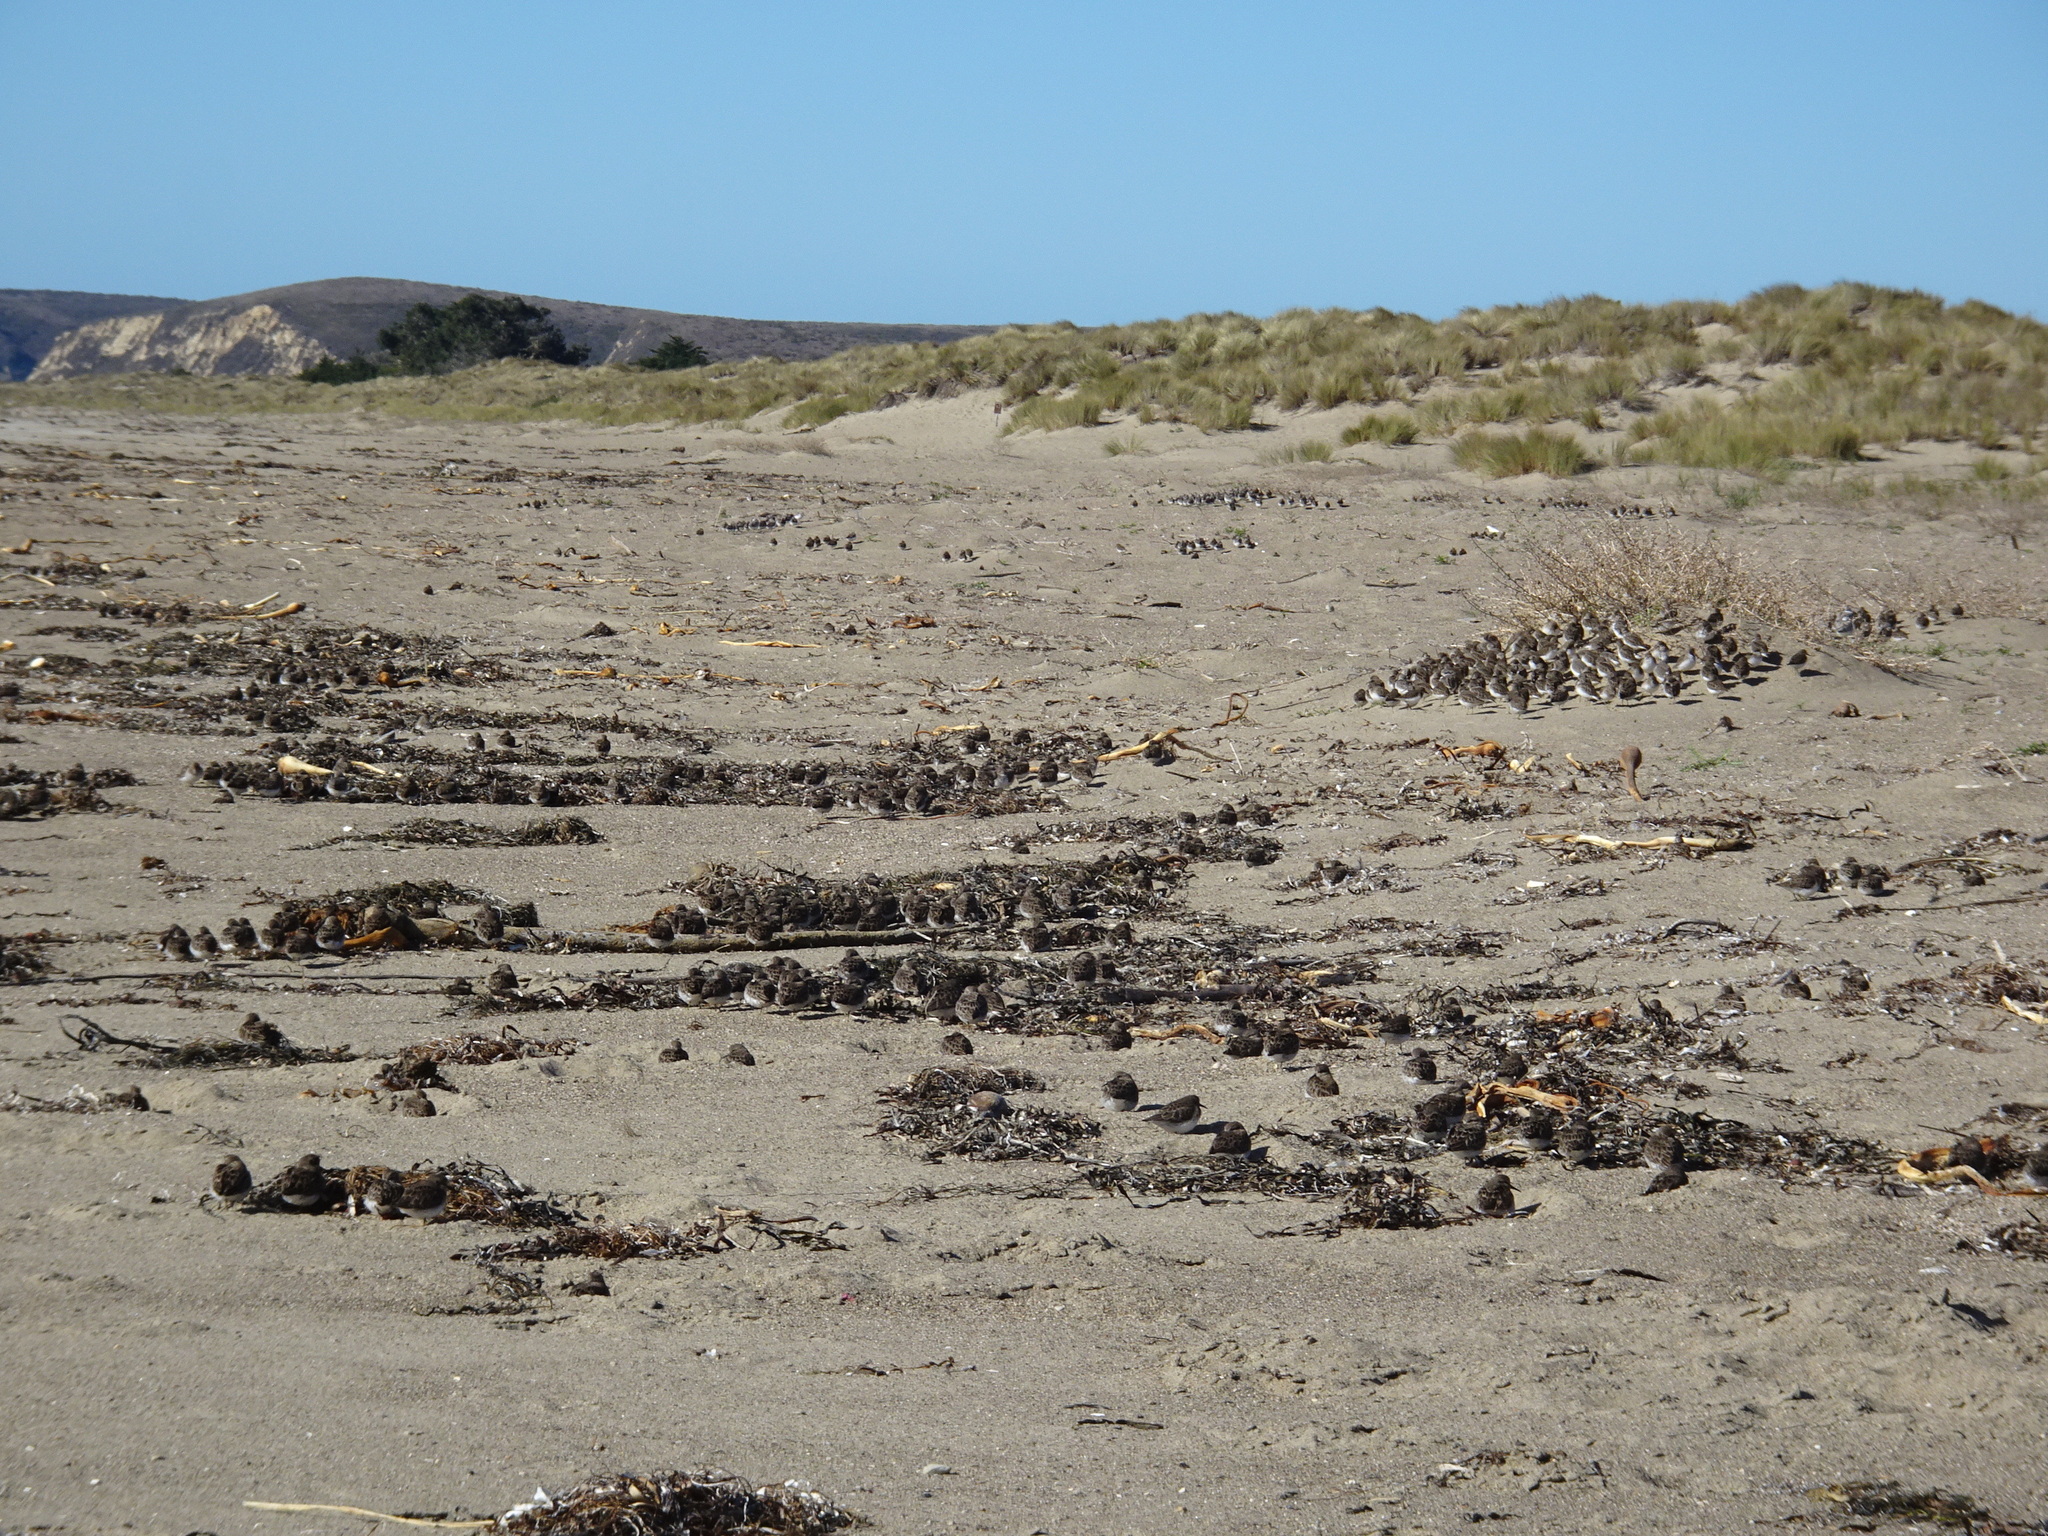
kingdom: Animalia
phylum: Chordata
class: Aves
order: Charadriiformes
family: Scolopacidae
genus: Calidris
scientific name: Calidris mauri
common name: Western sandpiper
